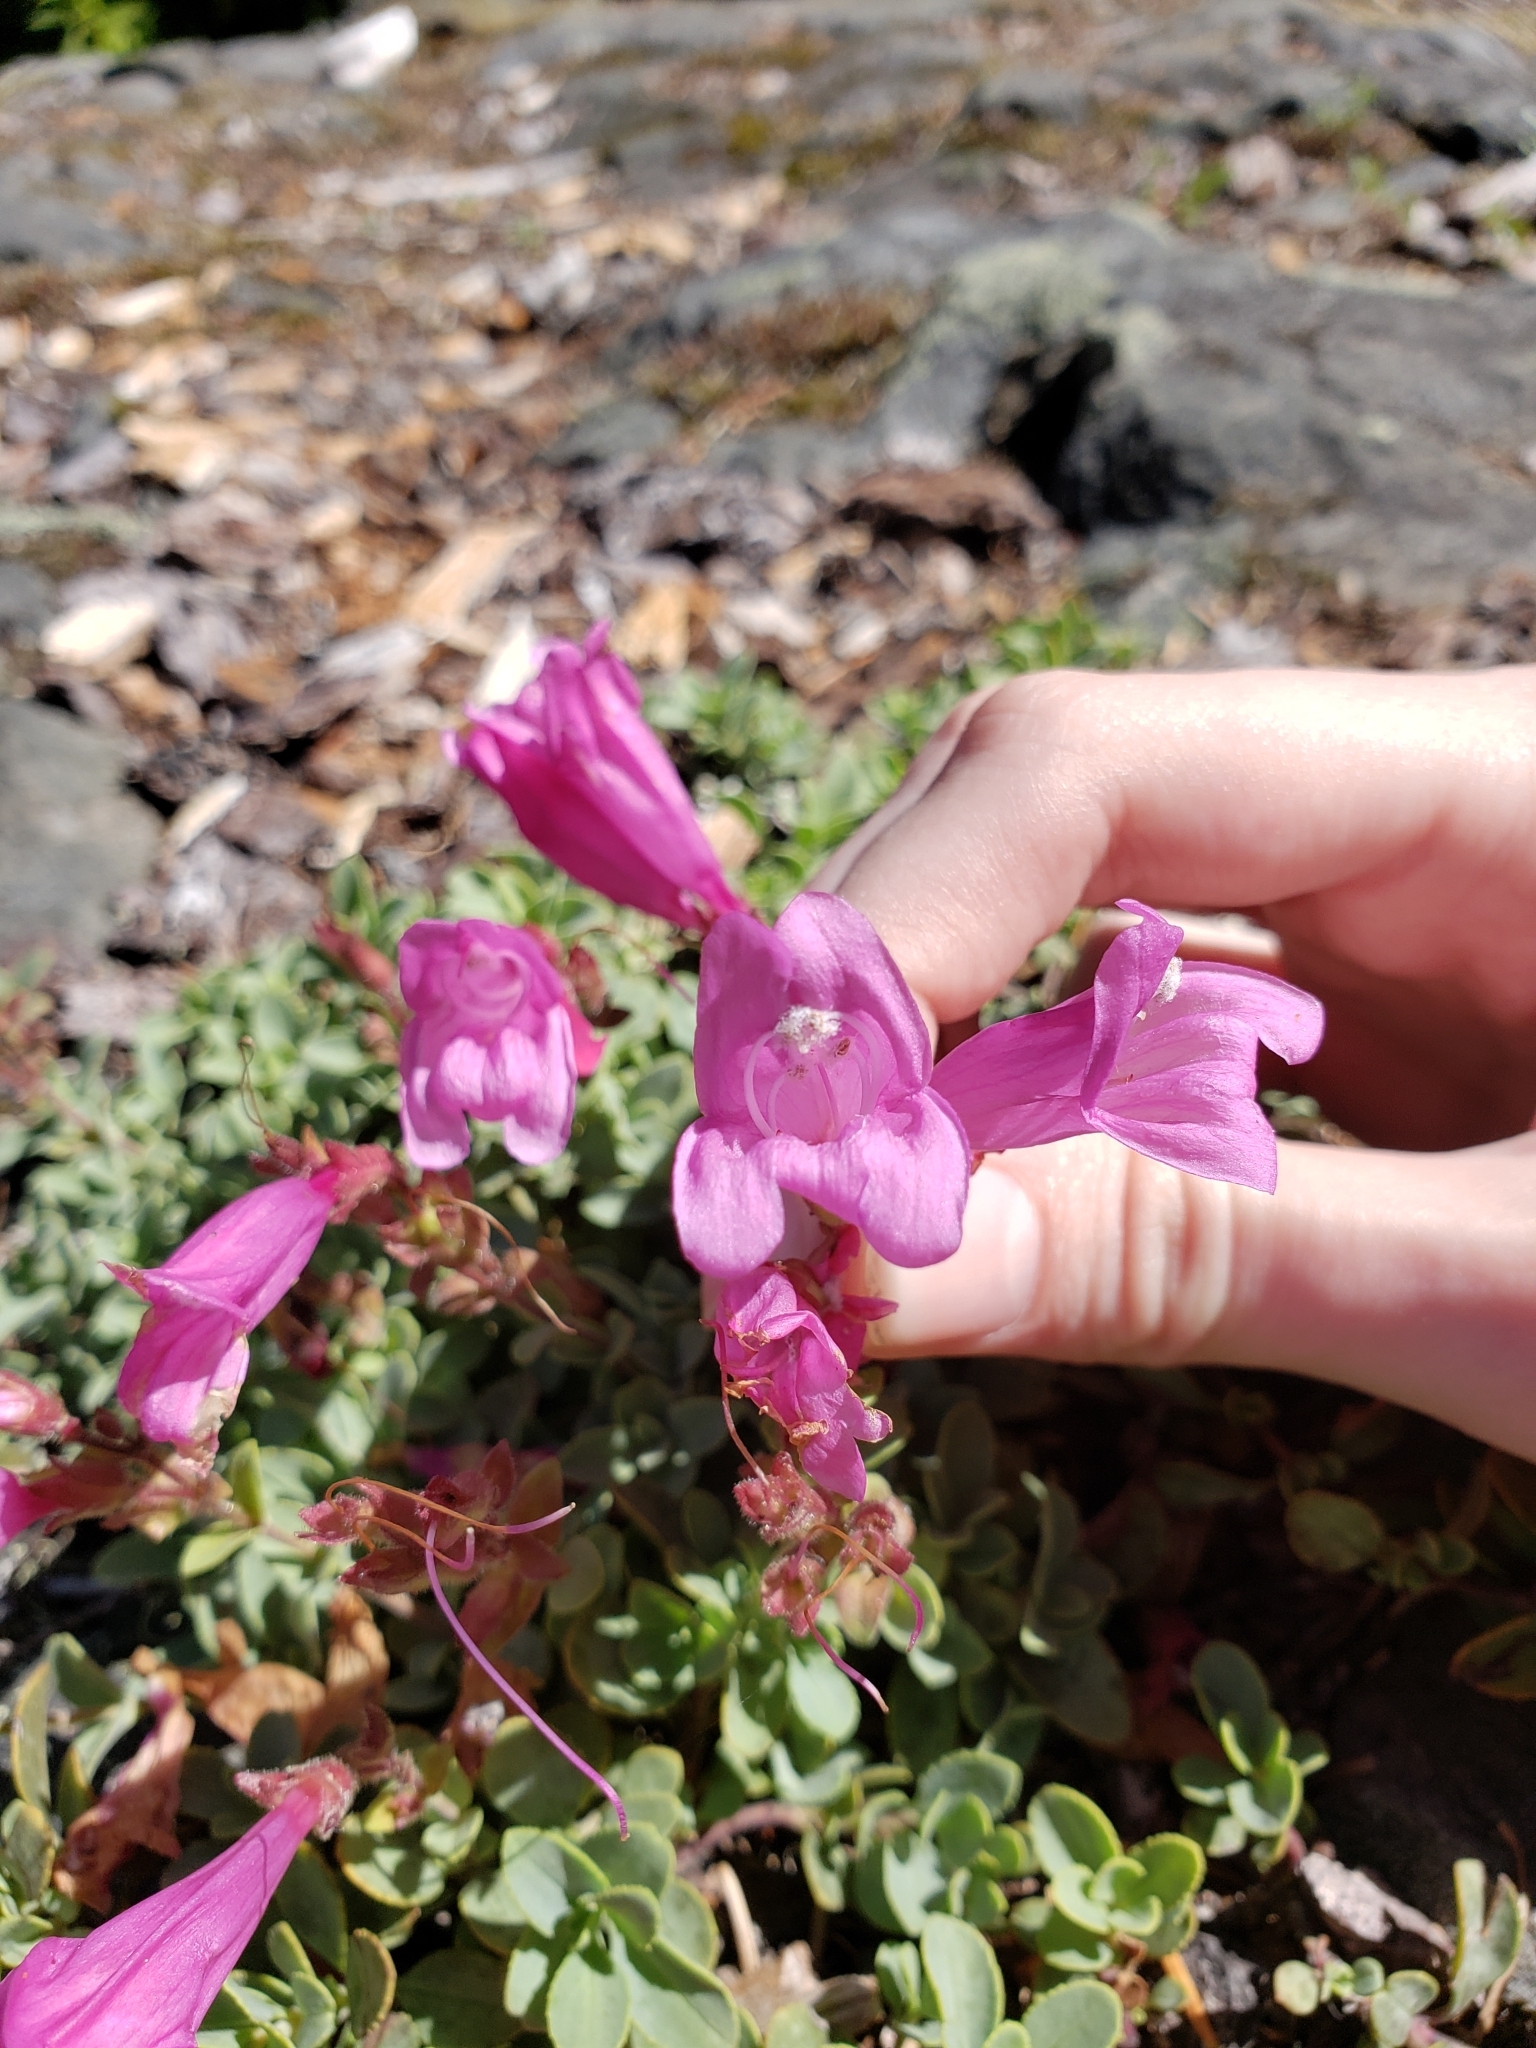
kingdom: Plantae
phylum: Tracheophyta
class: Magnoliopsida
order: Lamiales
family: Plantaginaceae
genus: Penstemon
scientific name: Penstemon rupicola
